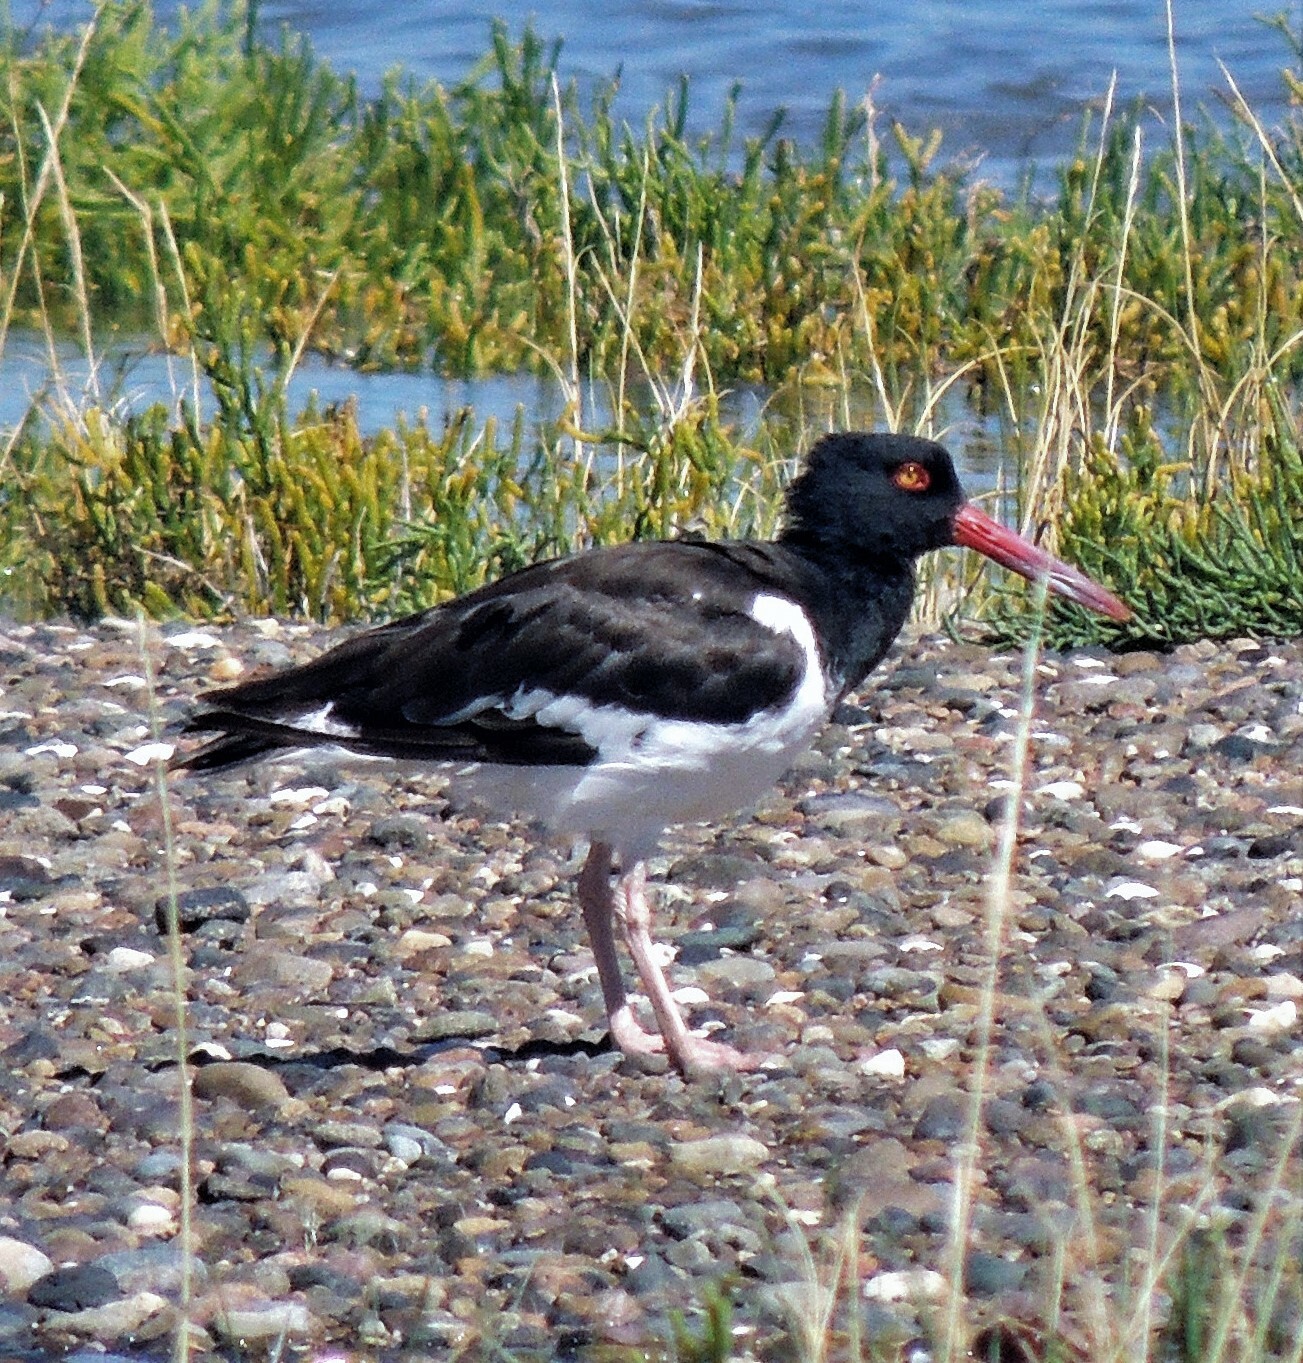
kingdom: Animalia
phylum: Chordata
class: Aves
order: Charadriiformes
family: Haematopodidae
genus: Haematopus
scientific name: Haematopus palliatus
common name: American oystercatcher
